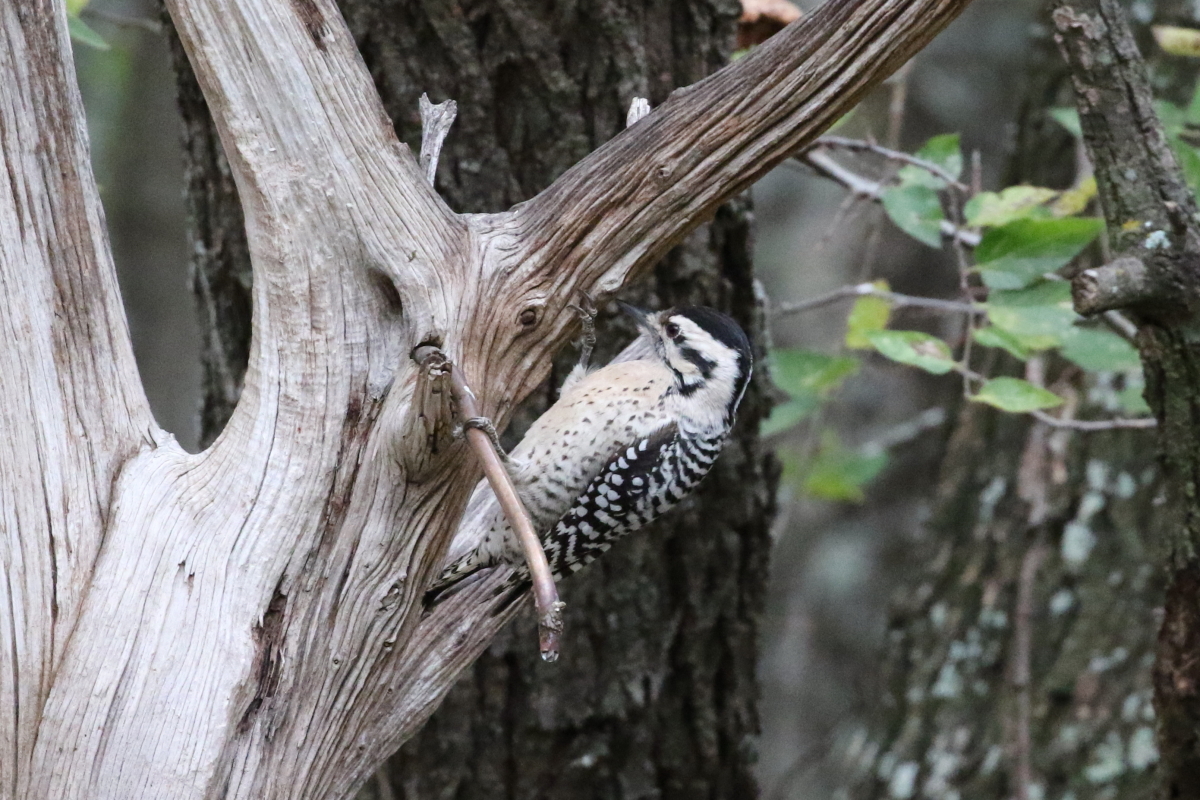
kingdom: Animalia
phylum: Chordata
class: Aves
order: Piciformes
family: Picidae
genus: Dryobates
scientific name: Dryobates scalaris
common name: Ladder-backed woodpecker
